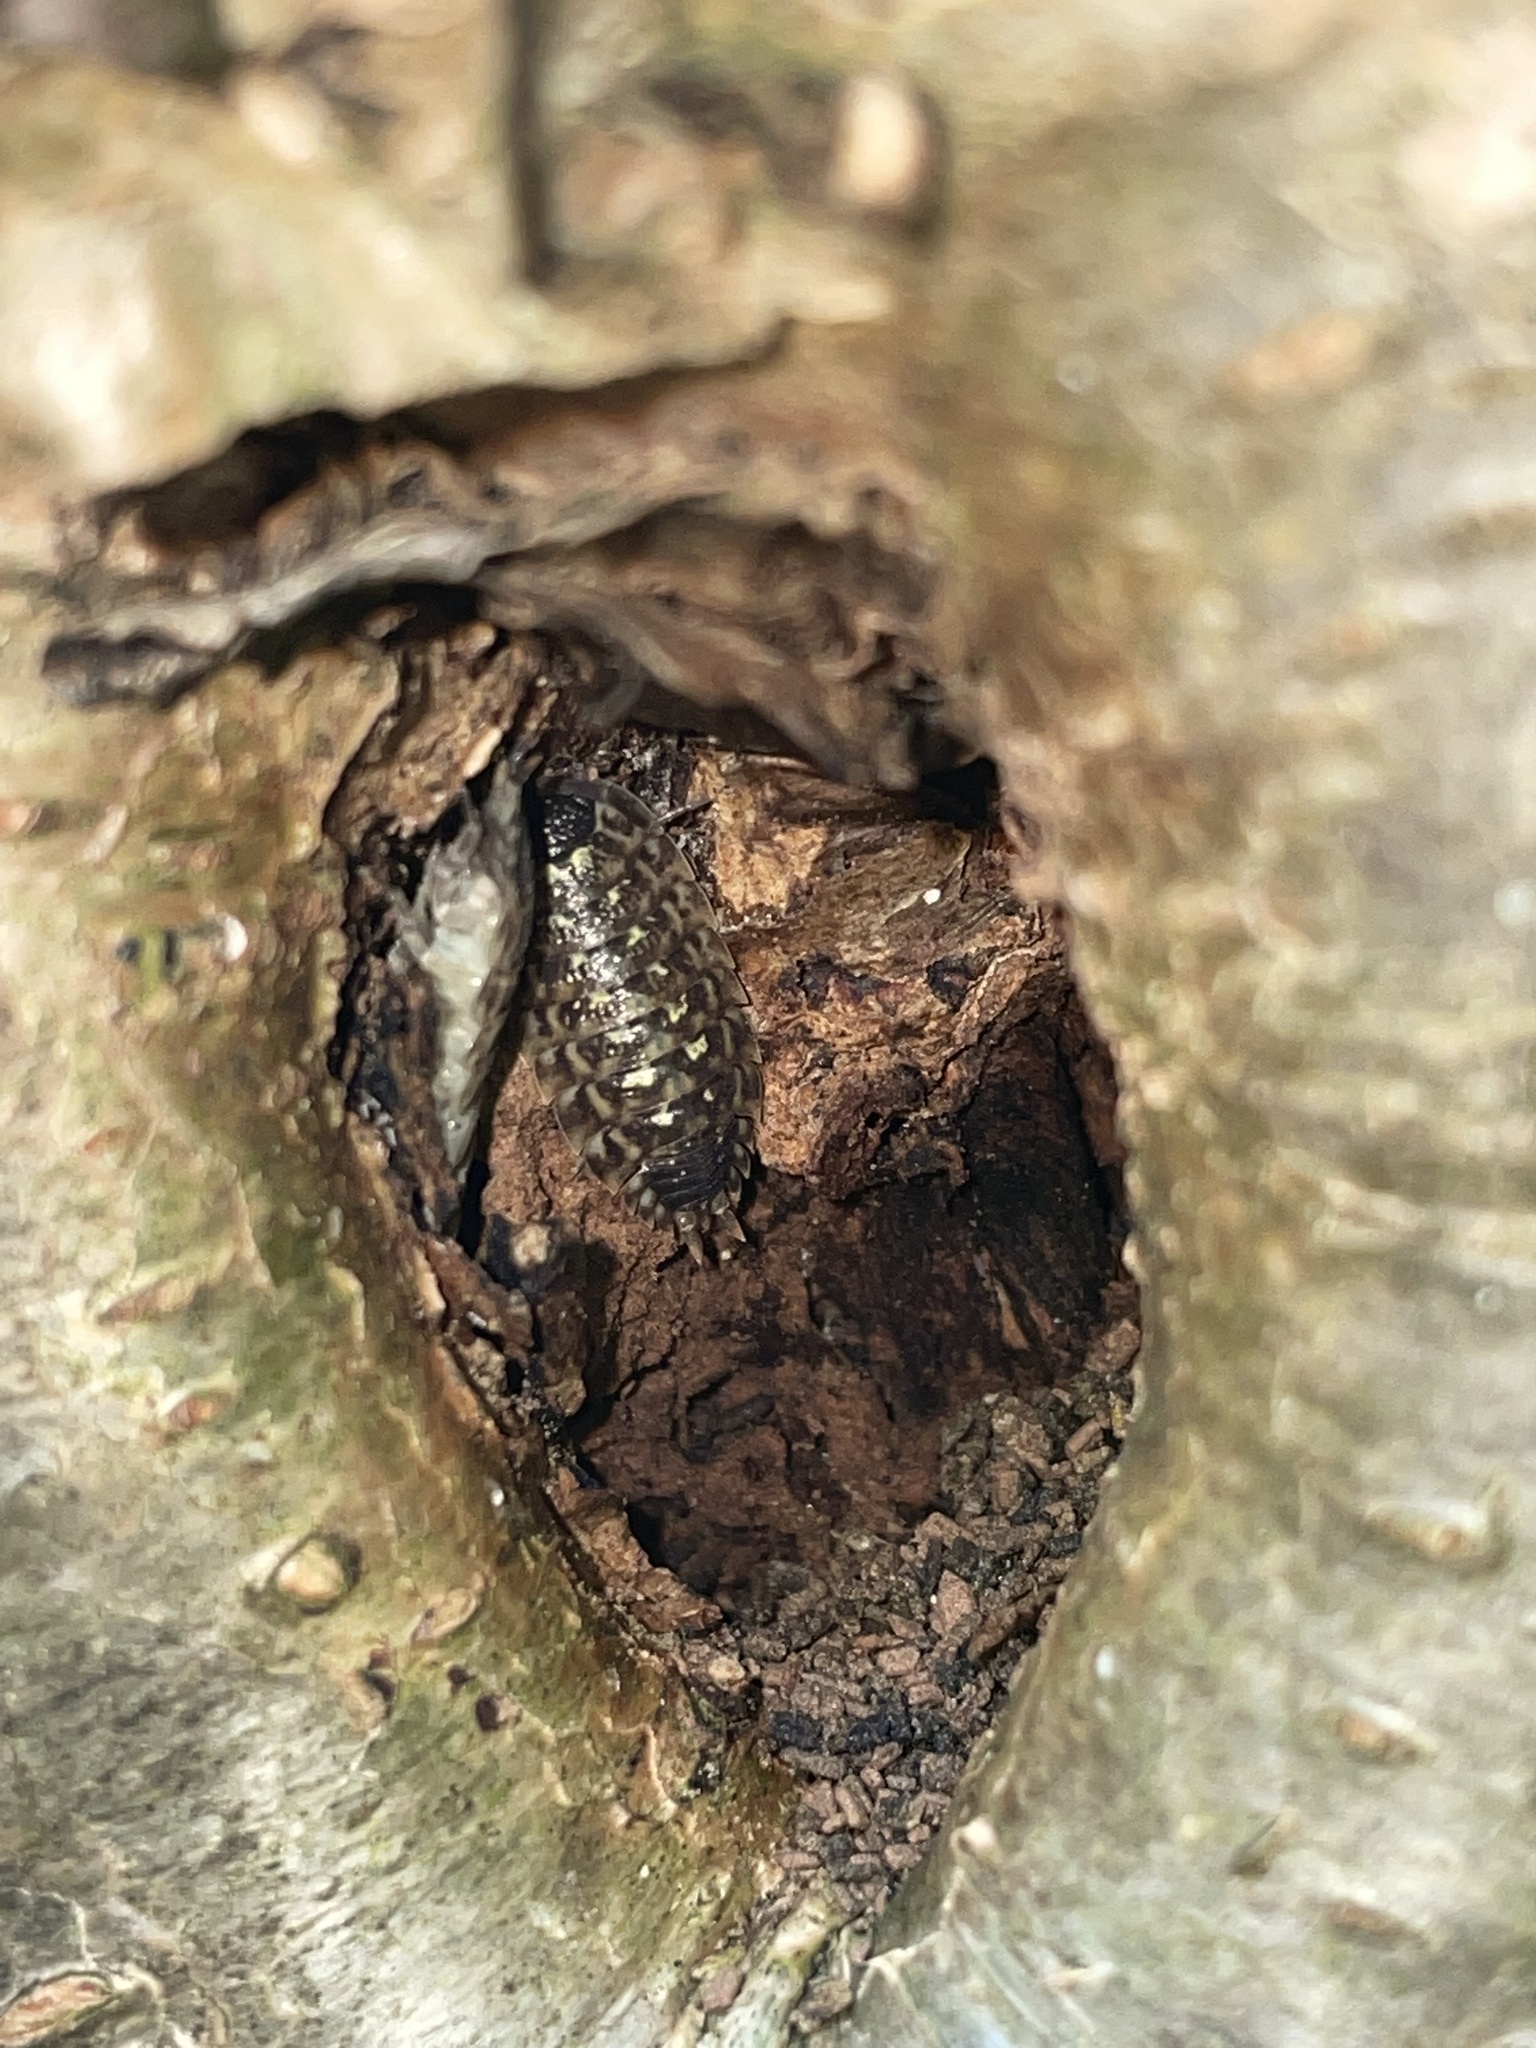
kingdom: Animalia
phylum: Arthropoda
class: Malacostraca
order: Isopoda
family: Porcellionidae
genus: Porcellio
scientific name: Porcellio spinicornis
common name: Painted woodlouse
